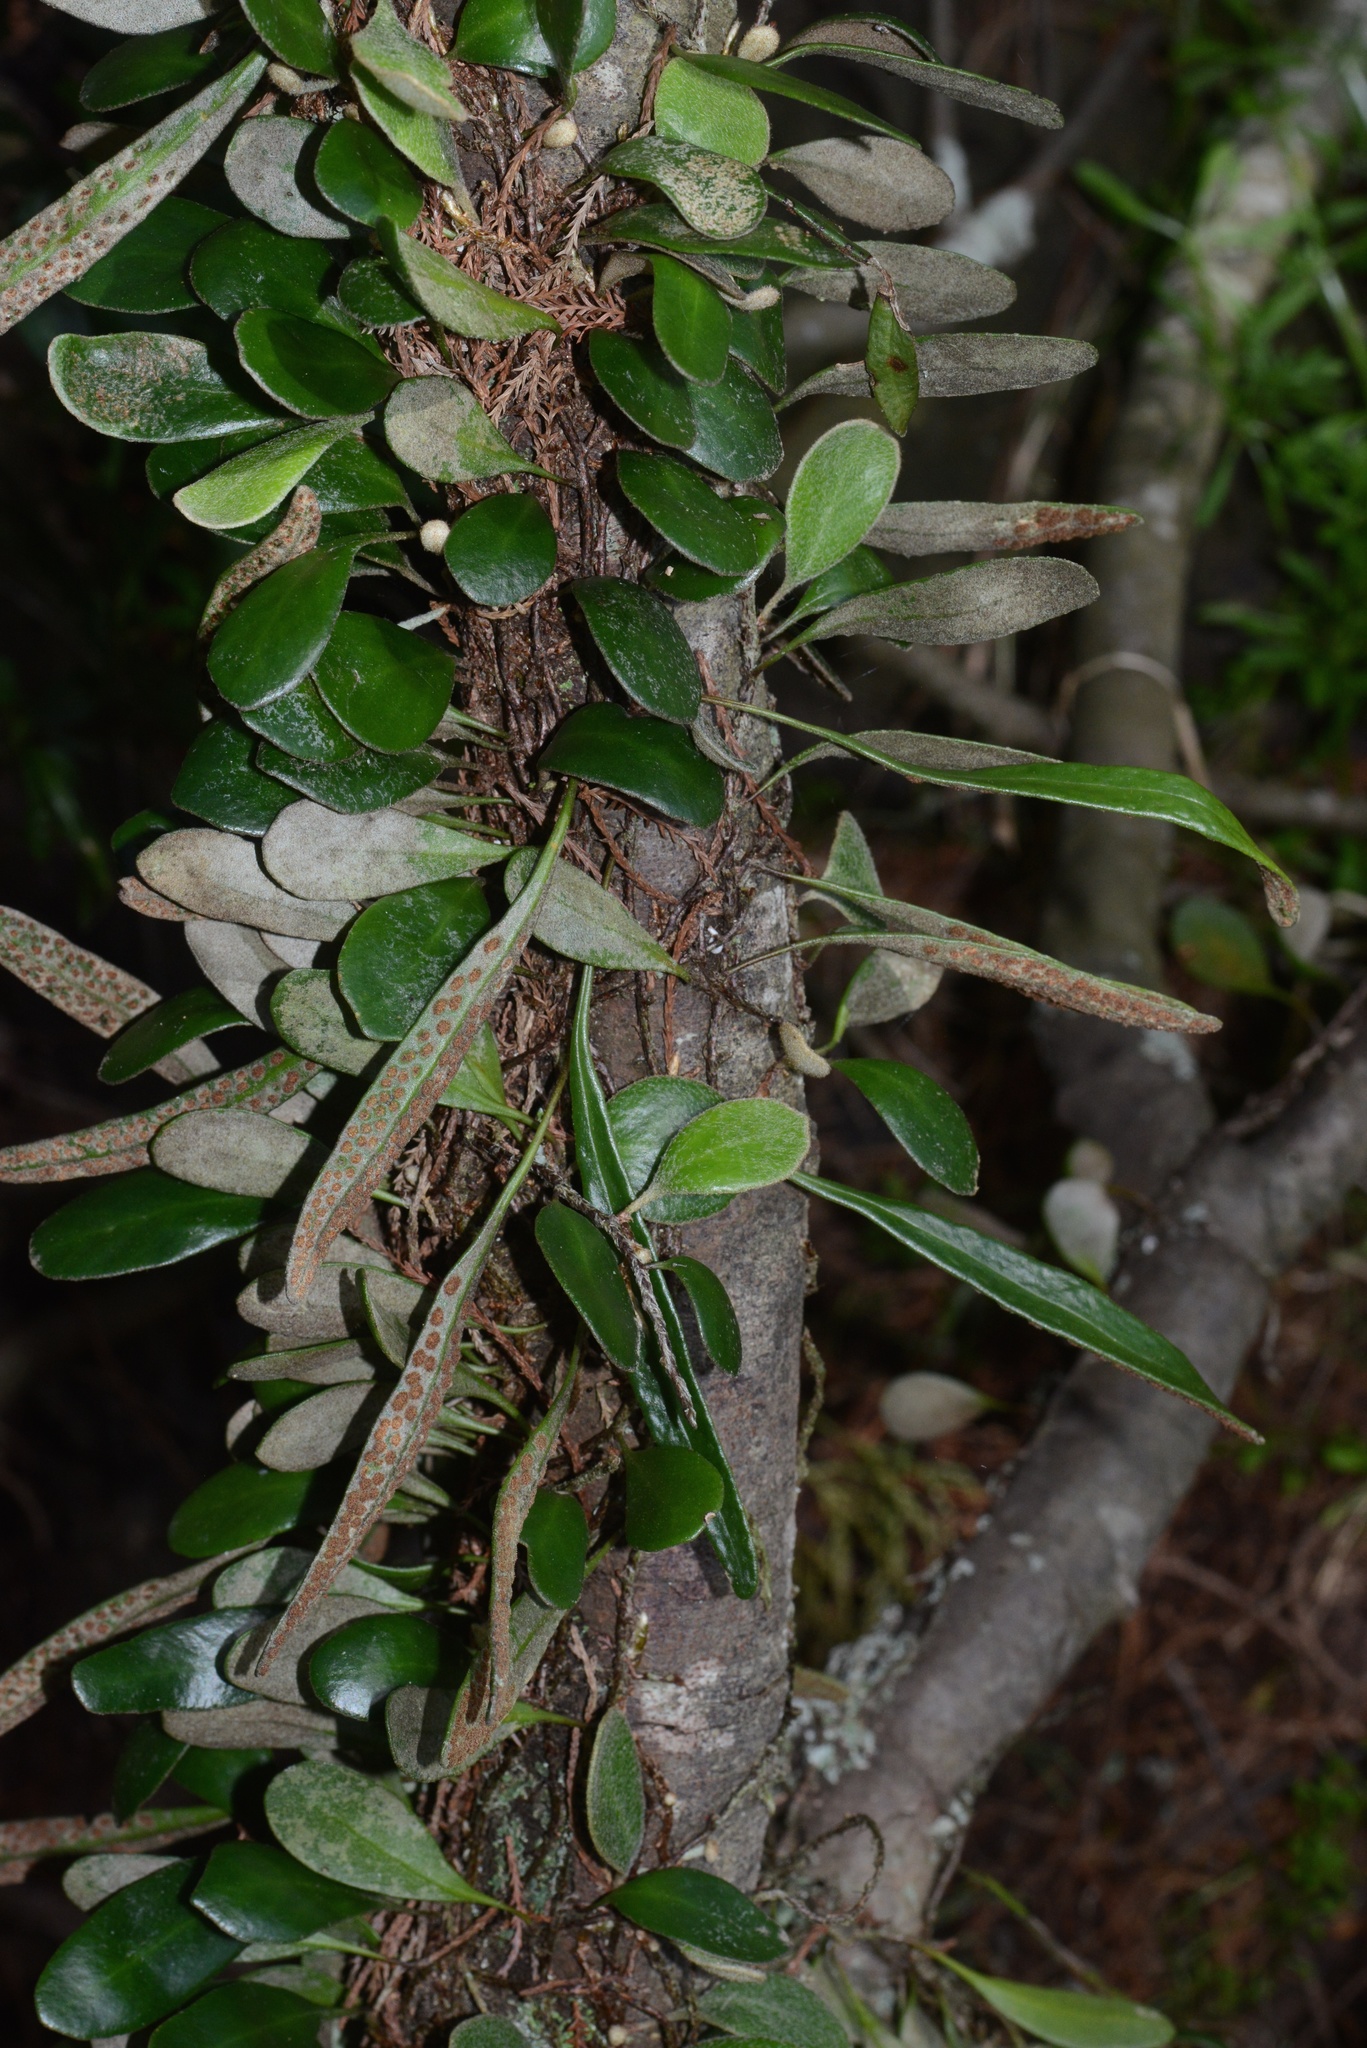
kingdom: Plantae
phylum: Tracheophyta
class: Polypodiopsida
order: Polypodiales
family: Polypodiaceae
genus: Pyrrosia
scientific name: Pyrrosia eleagnifolia
